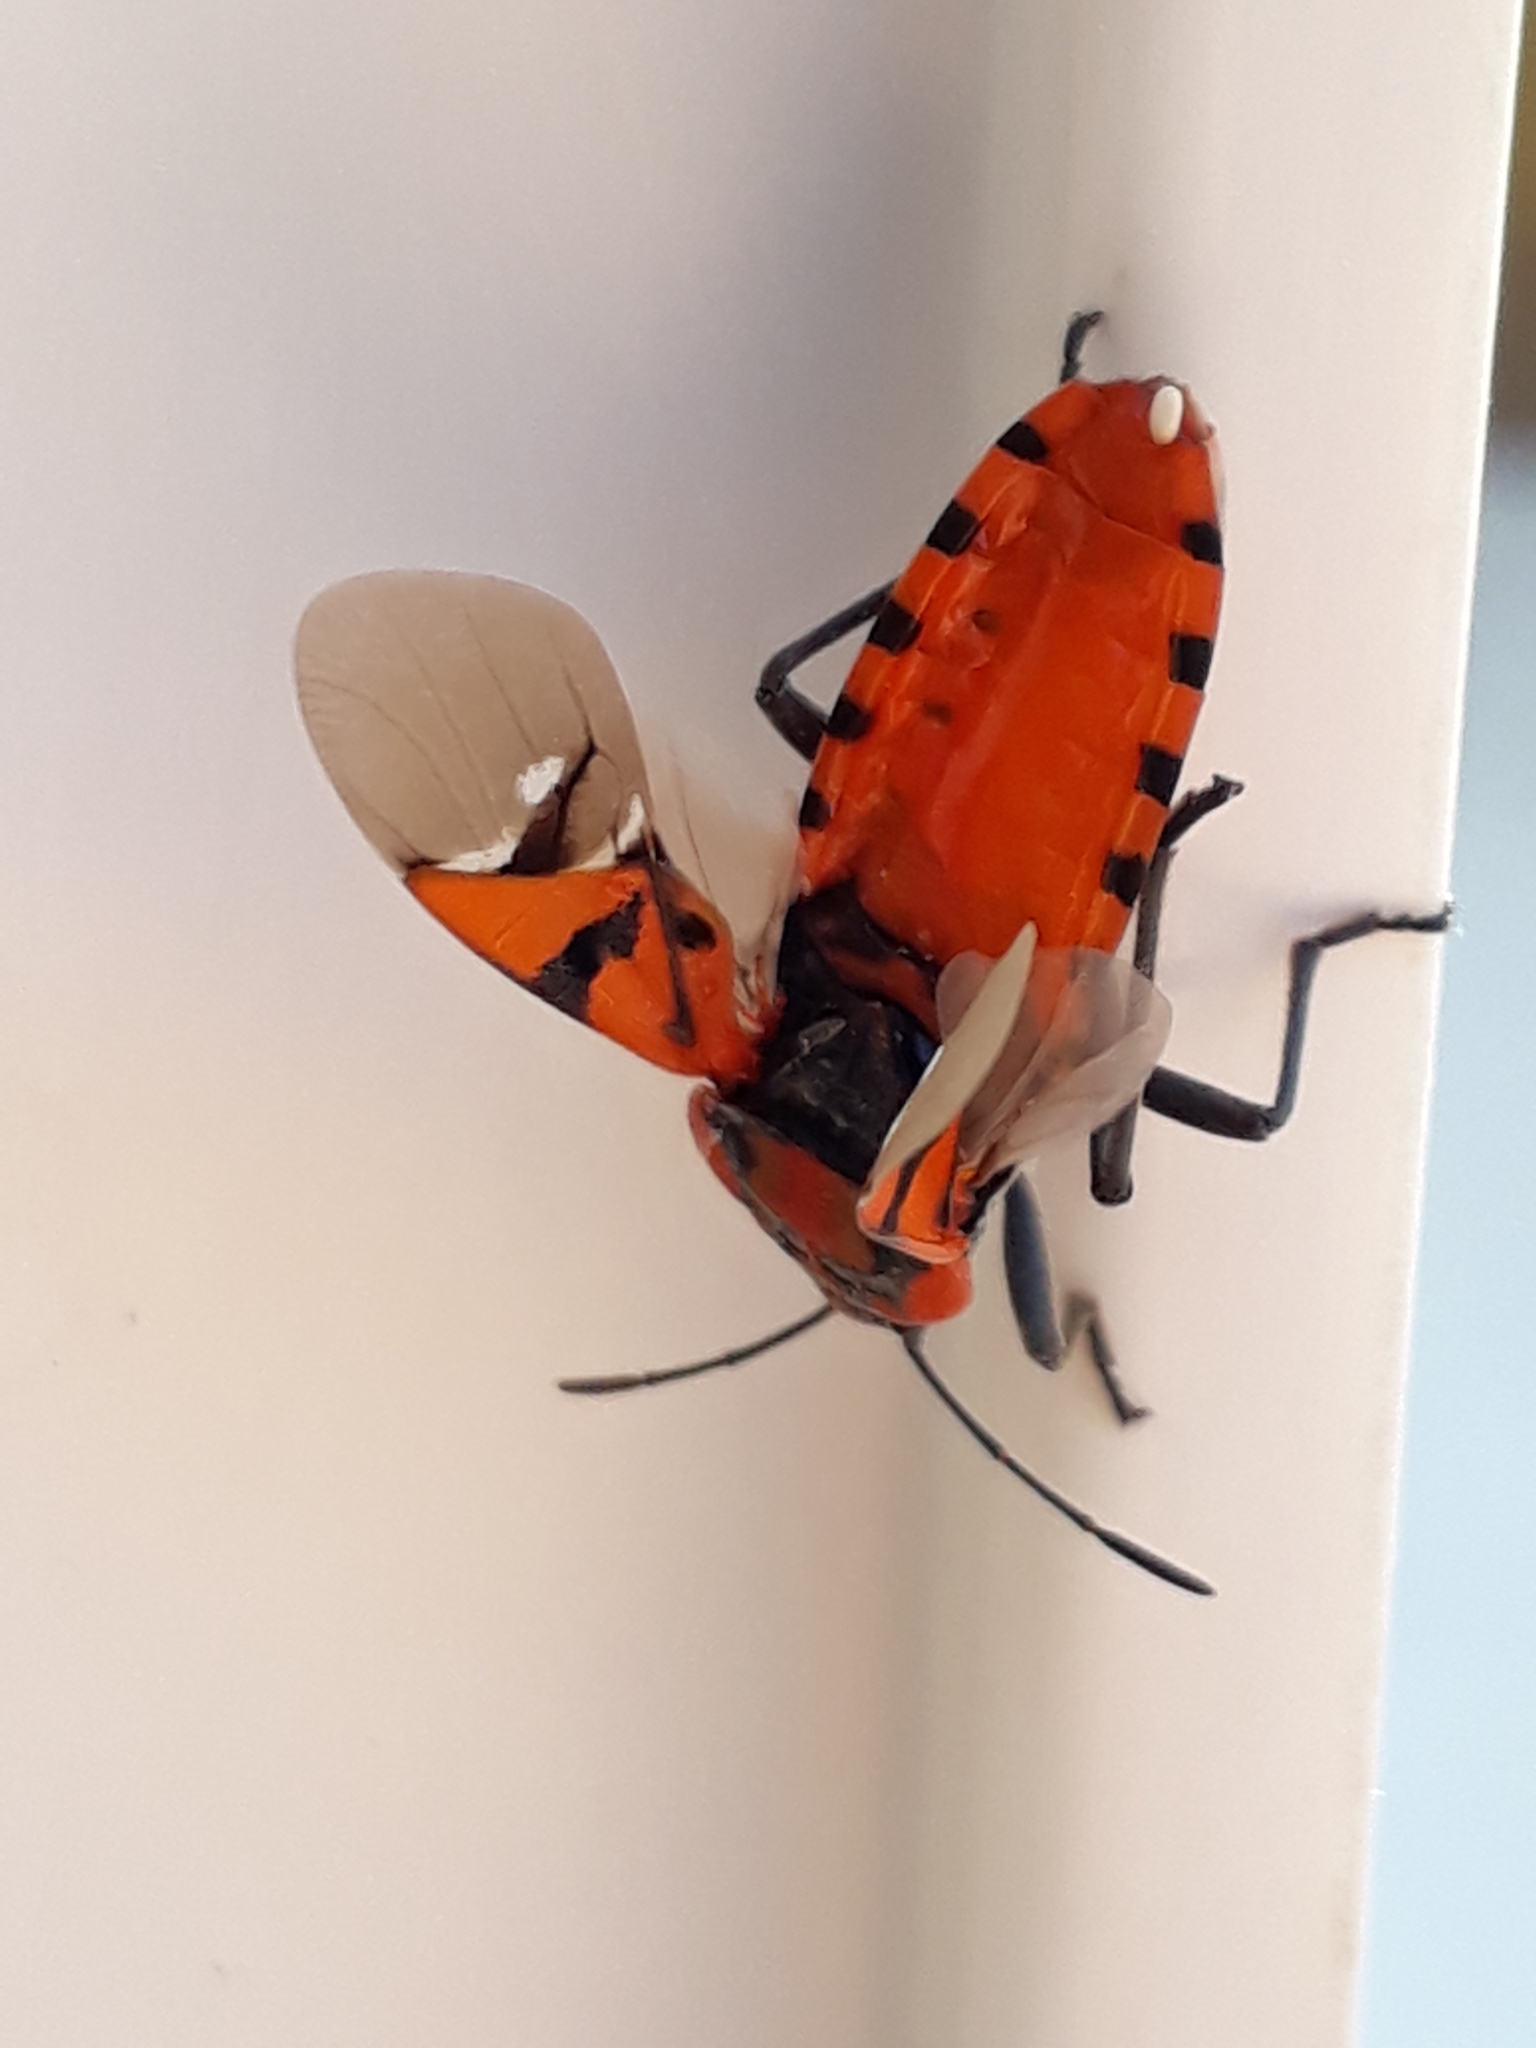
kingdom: Animalia
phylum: Arthropoda
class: Insecta
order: Hemiptera
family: Lygaeidae
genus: Spilostethus
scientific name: Spilostethus pandurus
